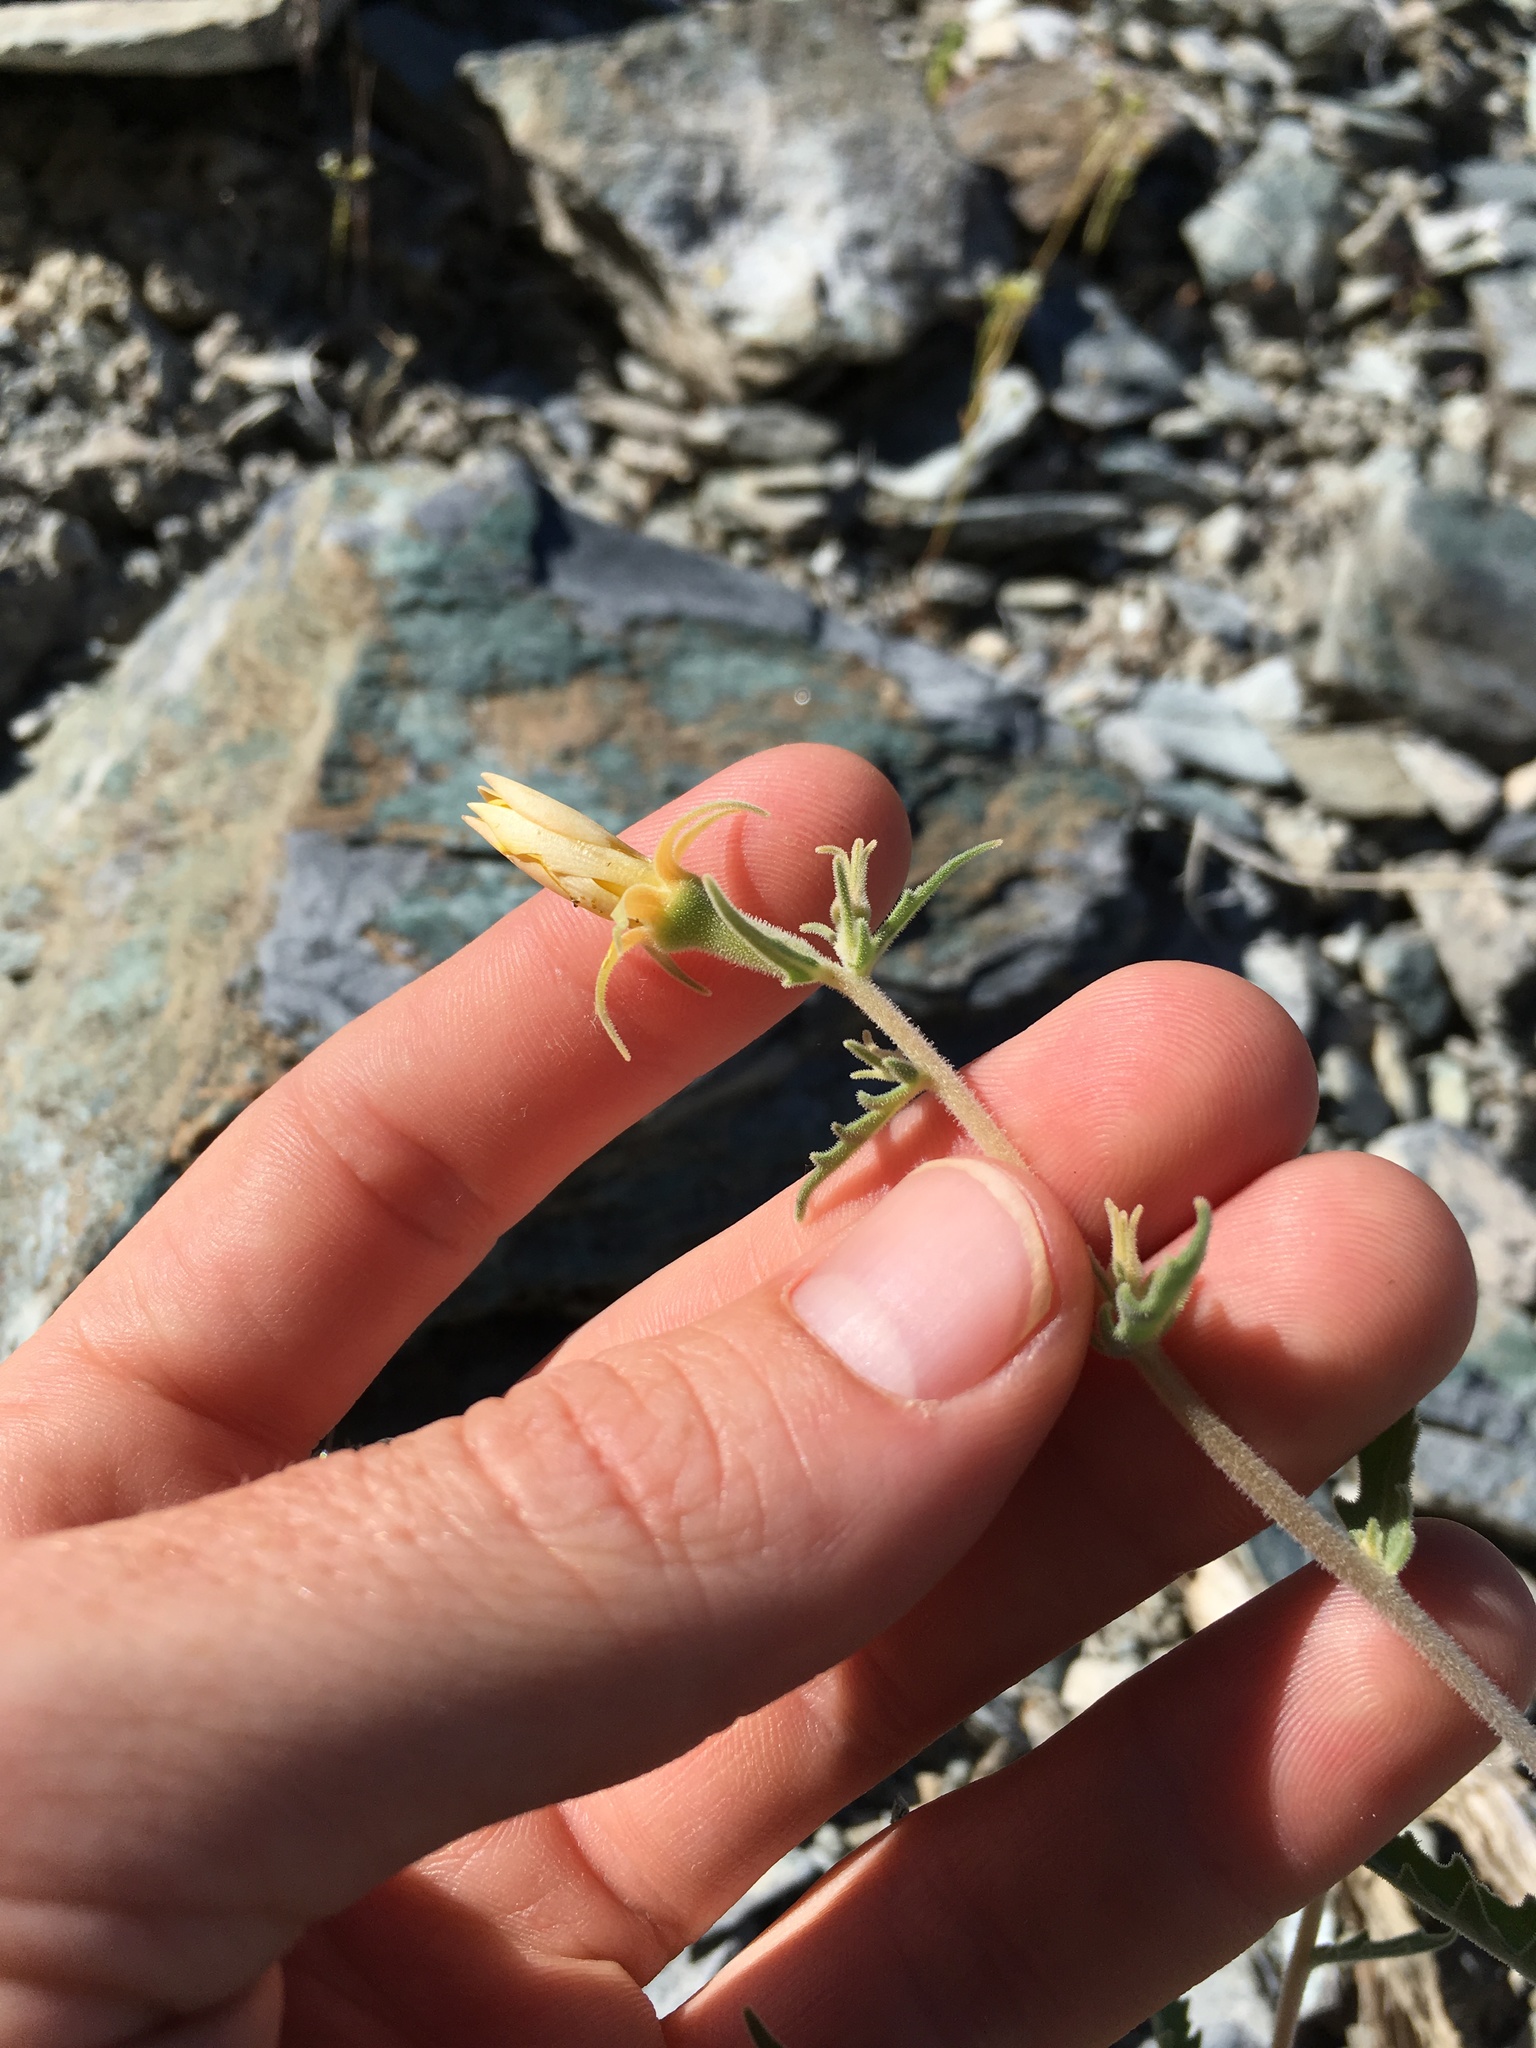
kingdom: Plantae
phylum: Tracheophyta
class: Magnoliopsida
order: Cornales
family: Loasaceae
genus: Mentzelia
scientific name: Mentzelia inyoensis
